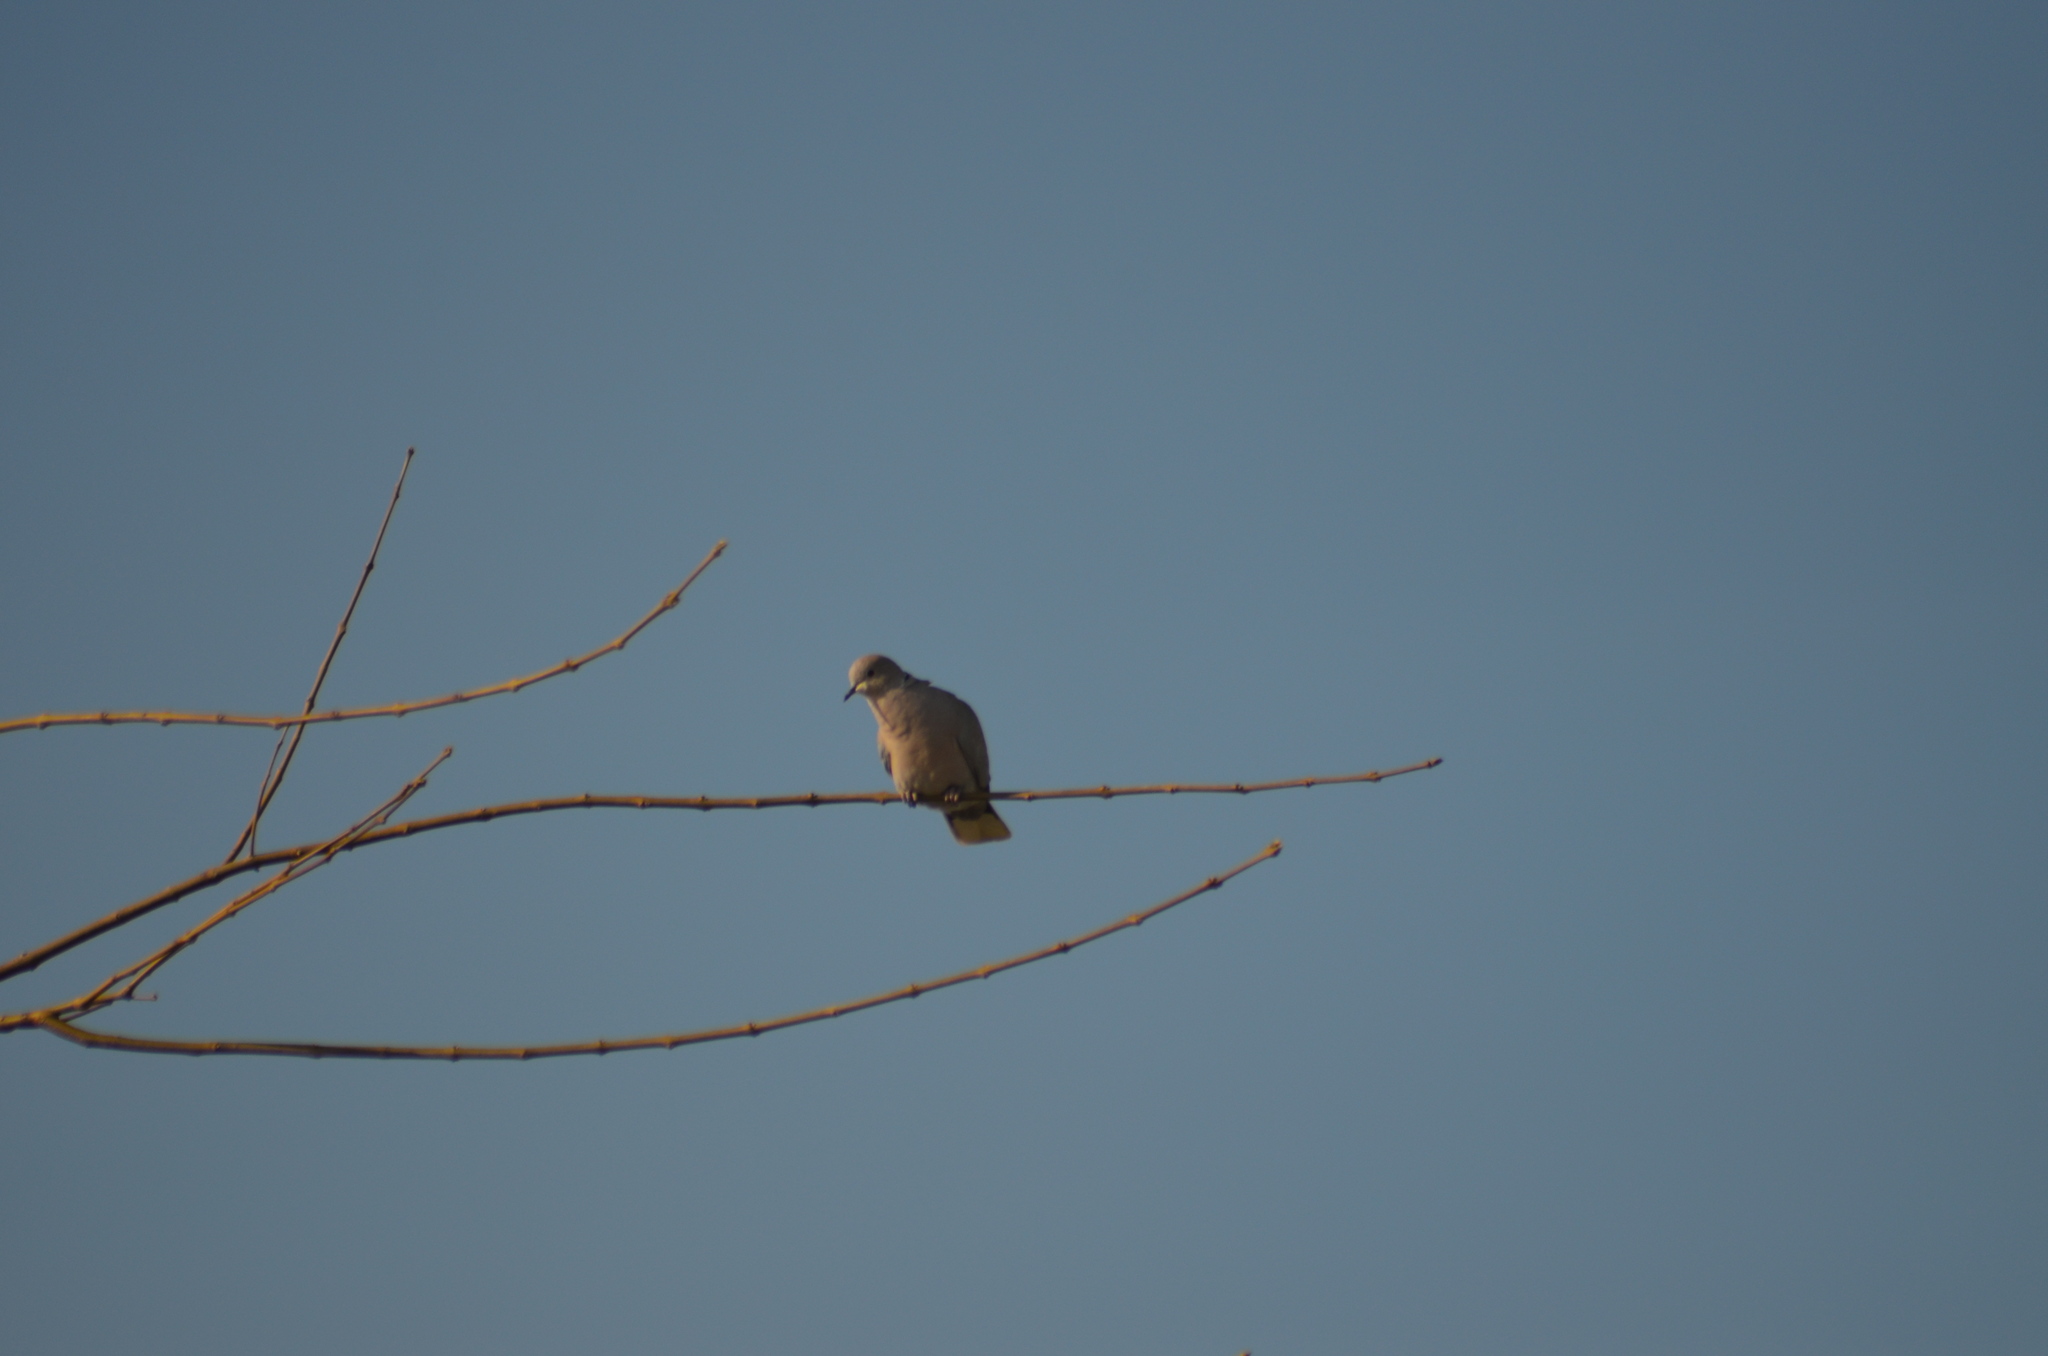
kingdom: Animalia
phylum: Chordata
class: Aves
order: Columbiformes
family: Columbidae
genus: Streptopelia
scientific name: Streptopelia decaocto
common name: Eurasian collared dove
